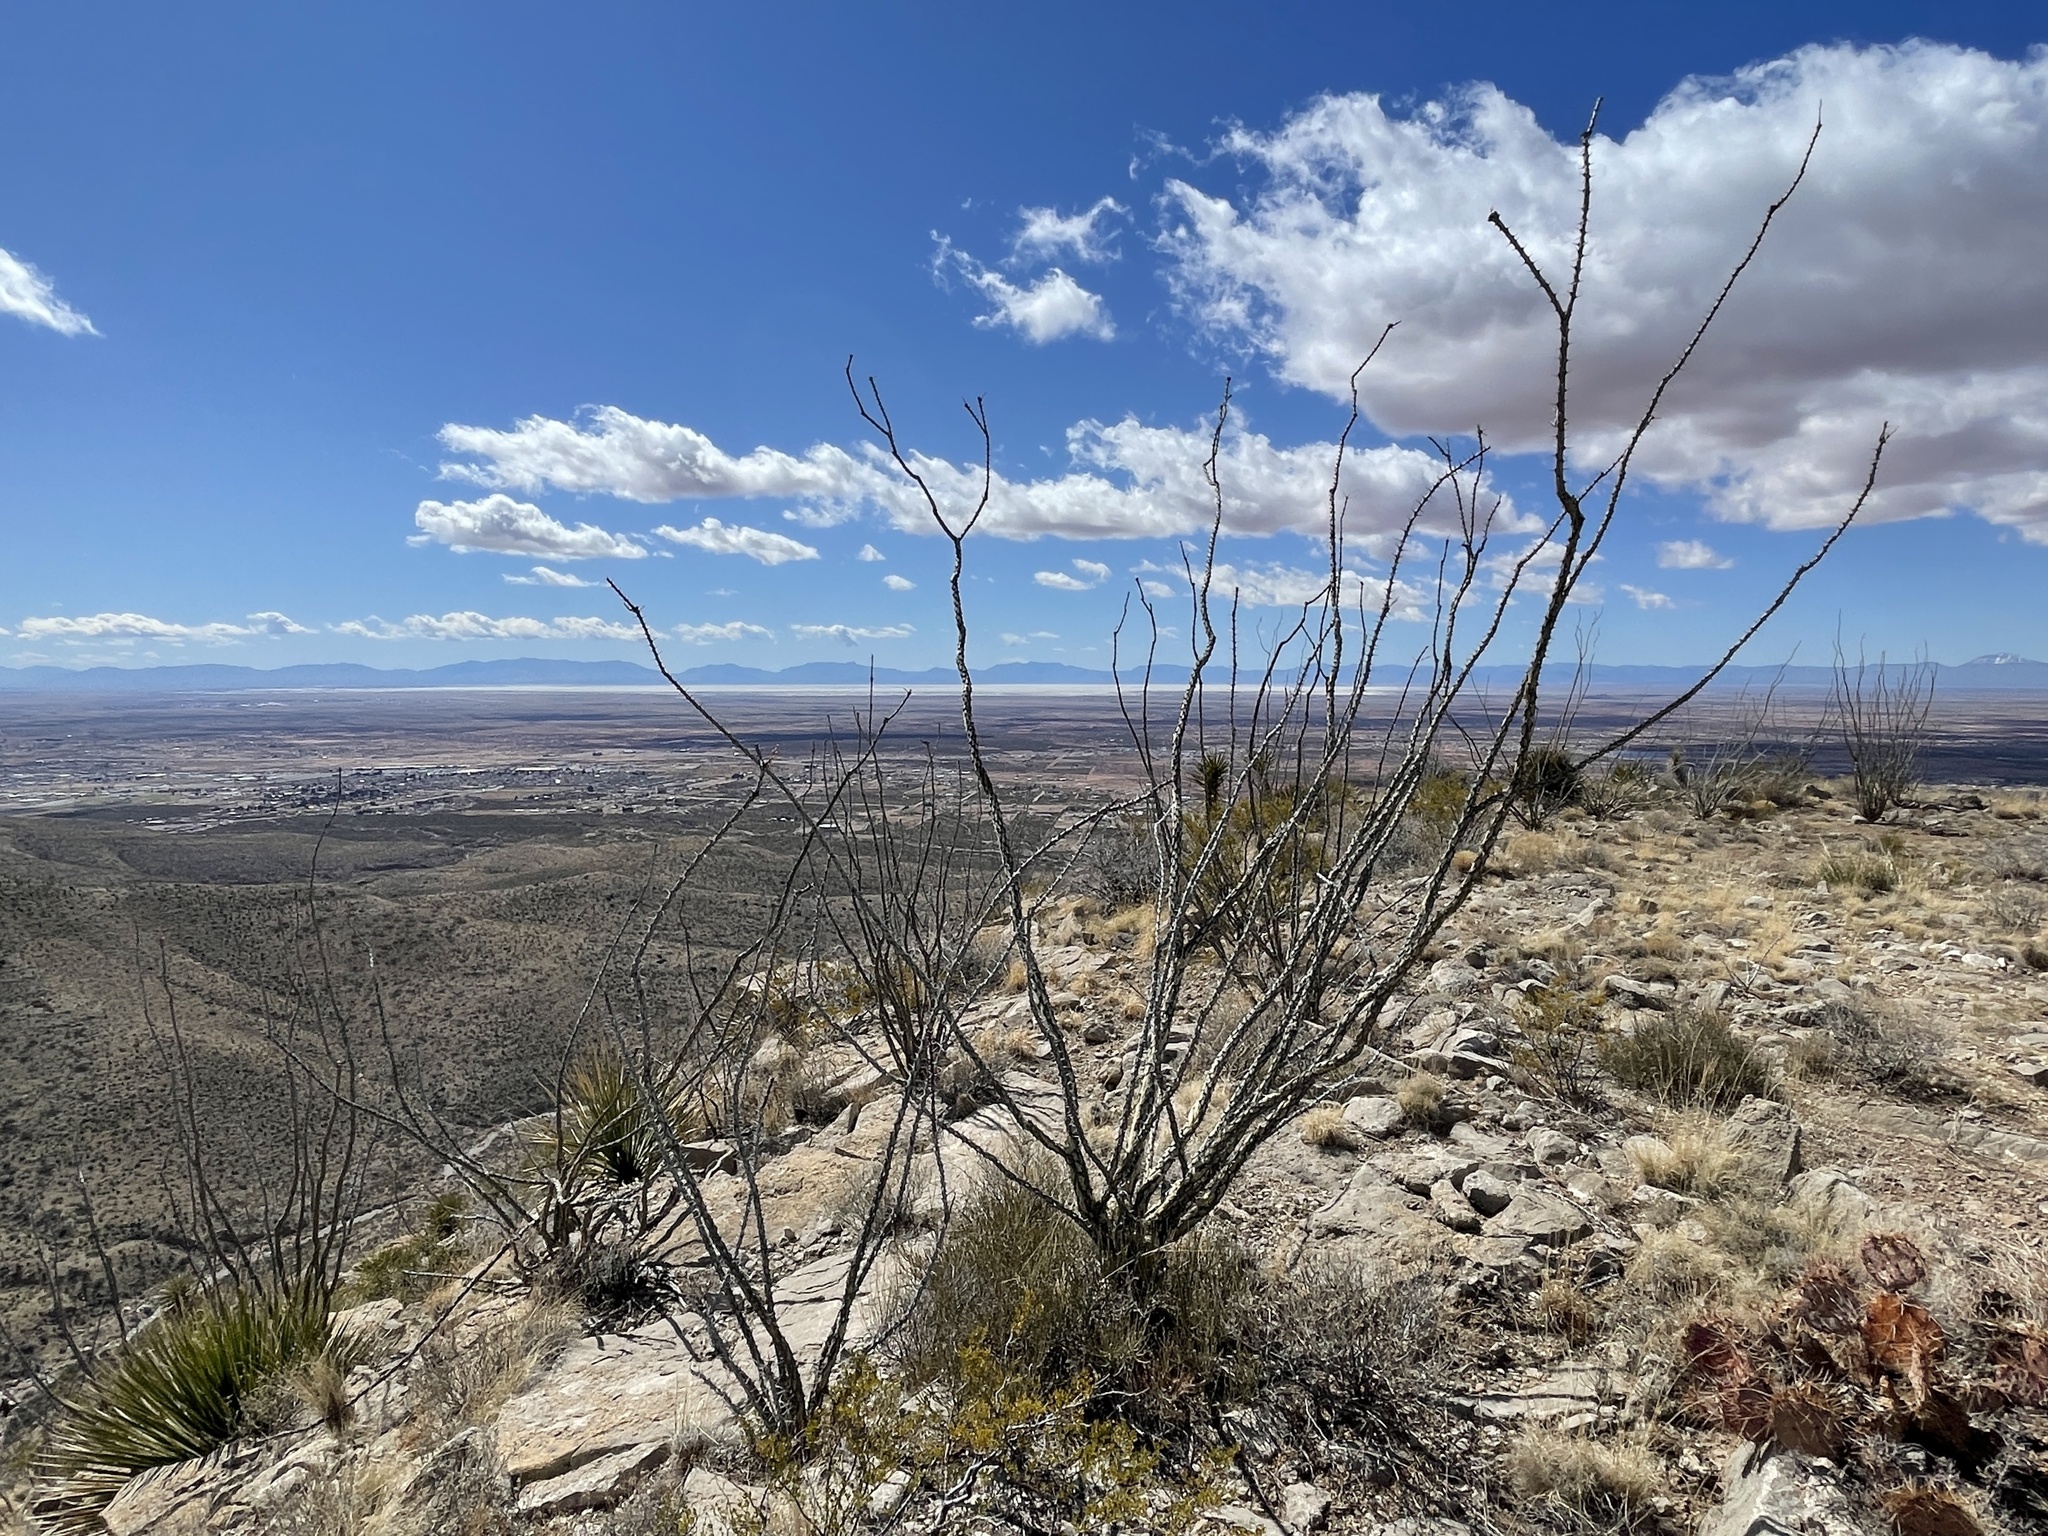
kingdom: Plantae
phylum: Tracheophyta
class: Magnoliopsida
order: Ericales
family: Fouquieriaceae
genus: Fouquieria
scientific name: Fouquieria splendens
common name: Vine-cactus
